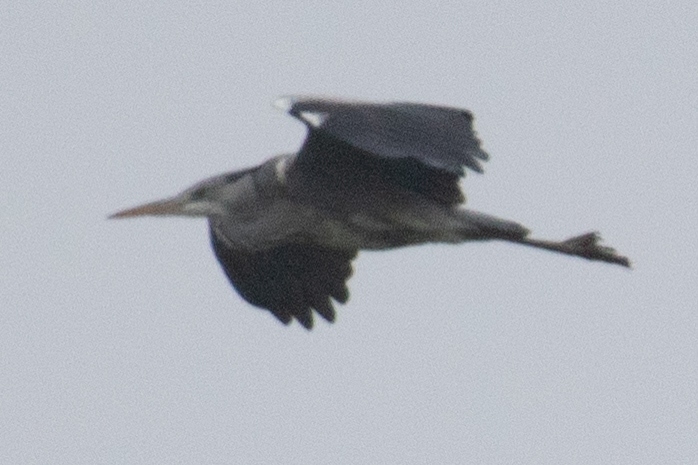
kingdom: Animalia
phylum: Chordata
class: Aves
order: Pelecaniformes
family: Ardeidae
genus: Ardea
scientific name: Ardea cinerea
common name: Grey heron
